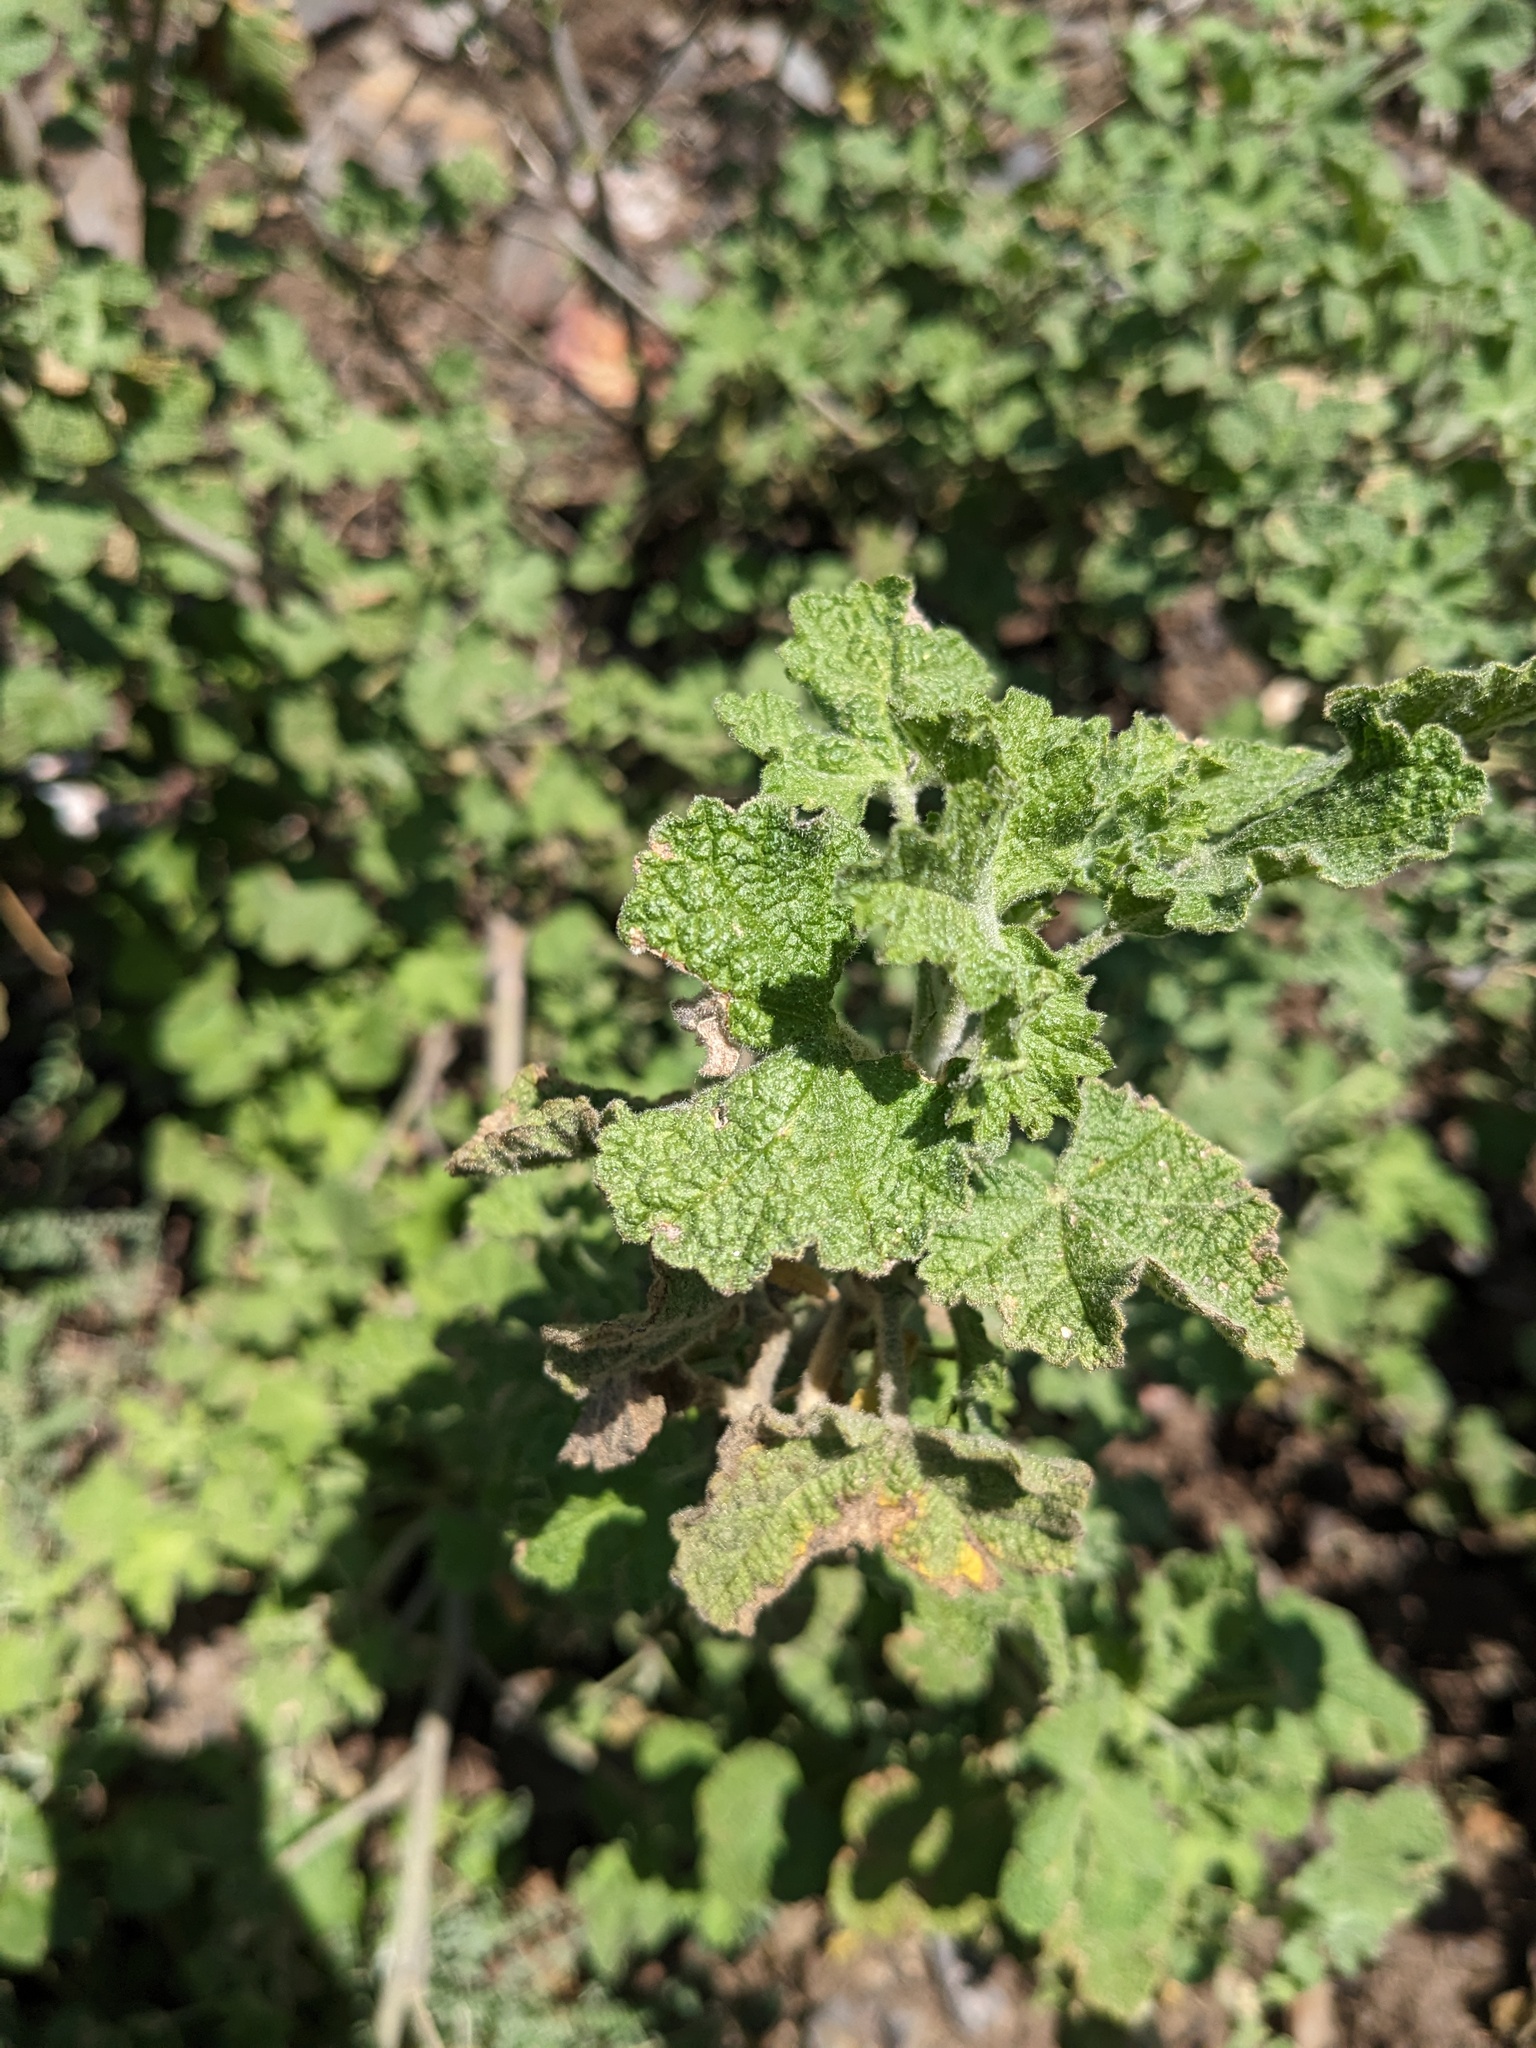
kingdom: Plantae
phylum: Tracheophyta
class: Magnoliopsida
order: Malvales
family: Malvaceae
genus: Malacothamnus
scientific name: Malacothamnus fremontii
